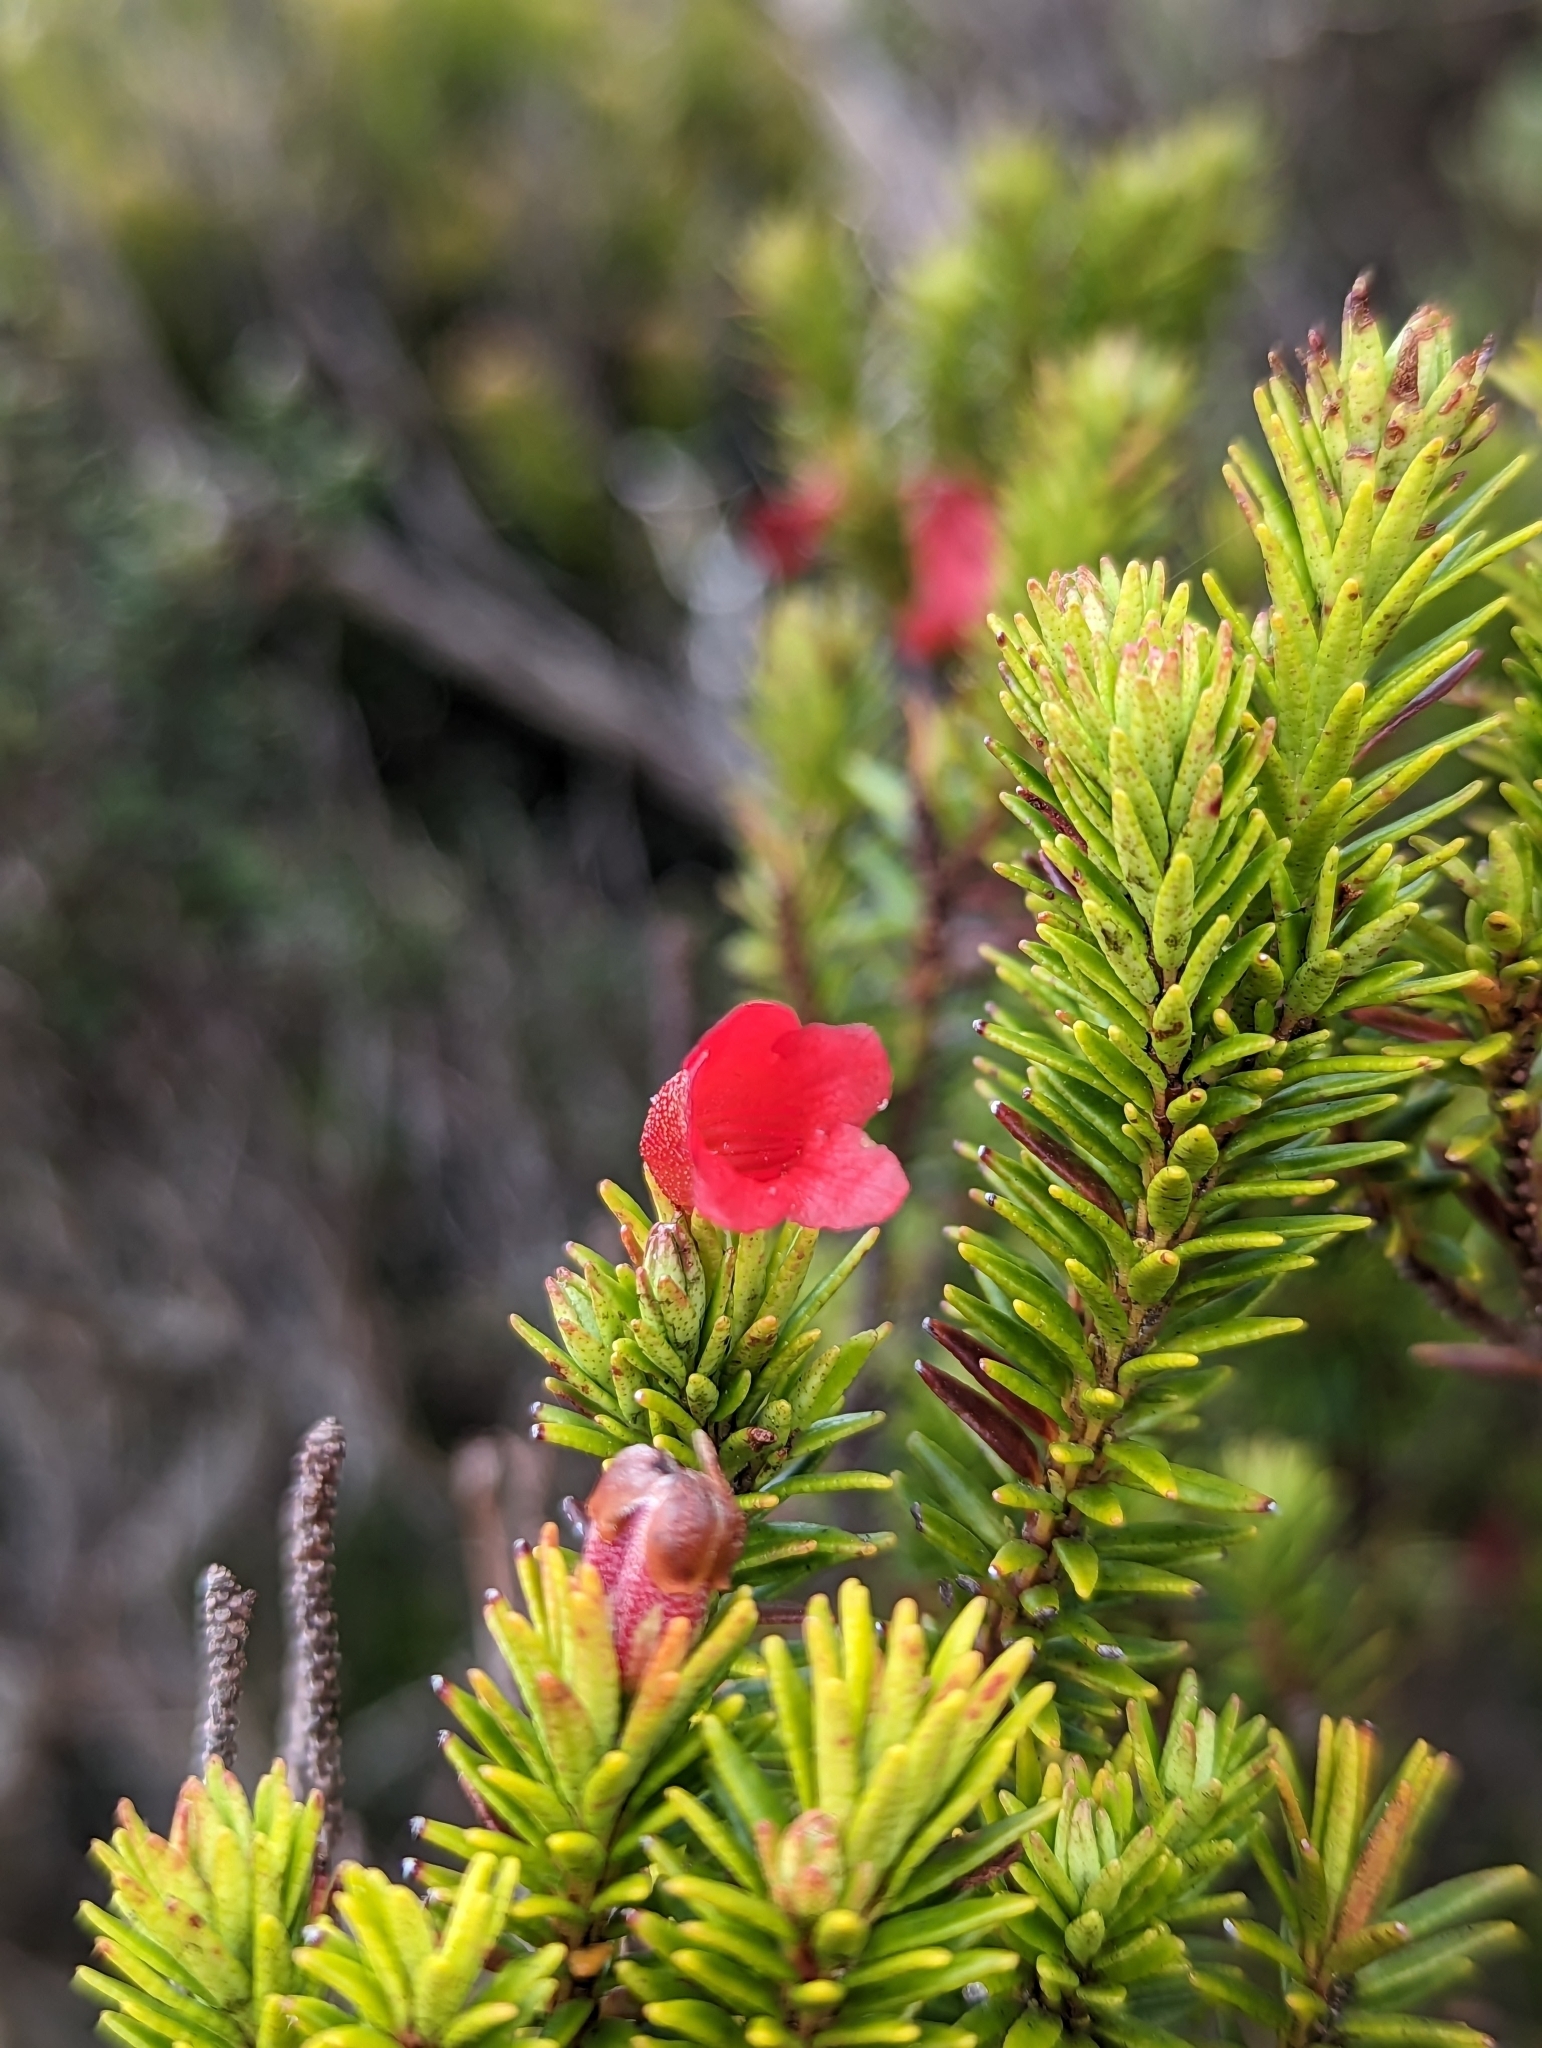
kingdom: Plantae
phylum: Tracheophyta
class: Magnoliopsida
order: Ericales
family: Ericaceae
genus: Rhododendron
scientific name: Rhododendron ericoides
